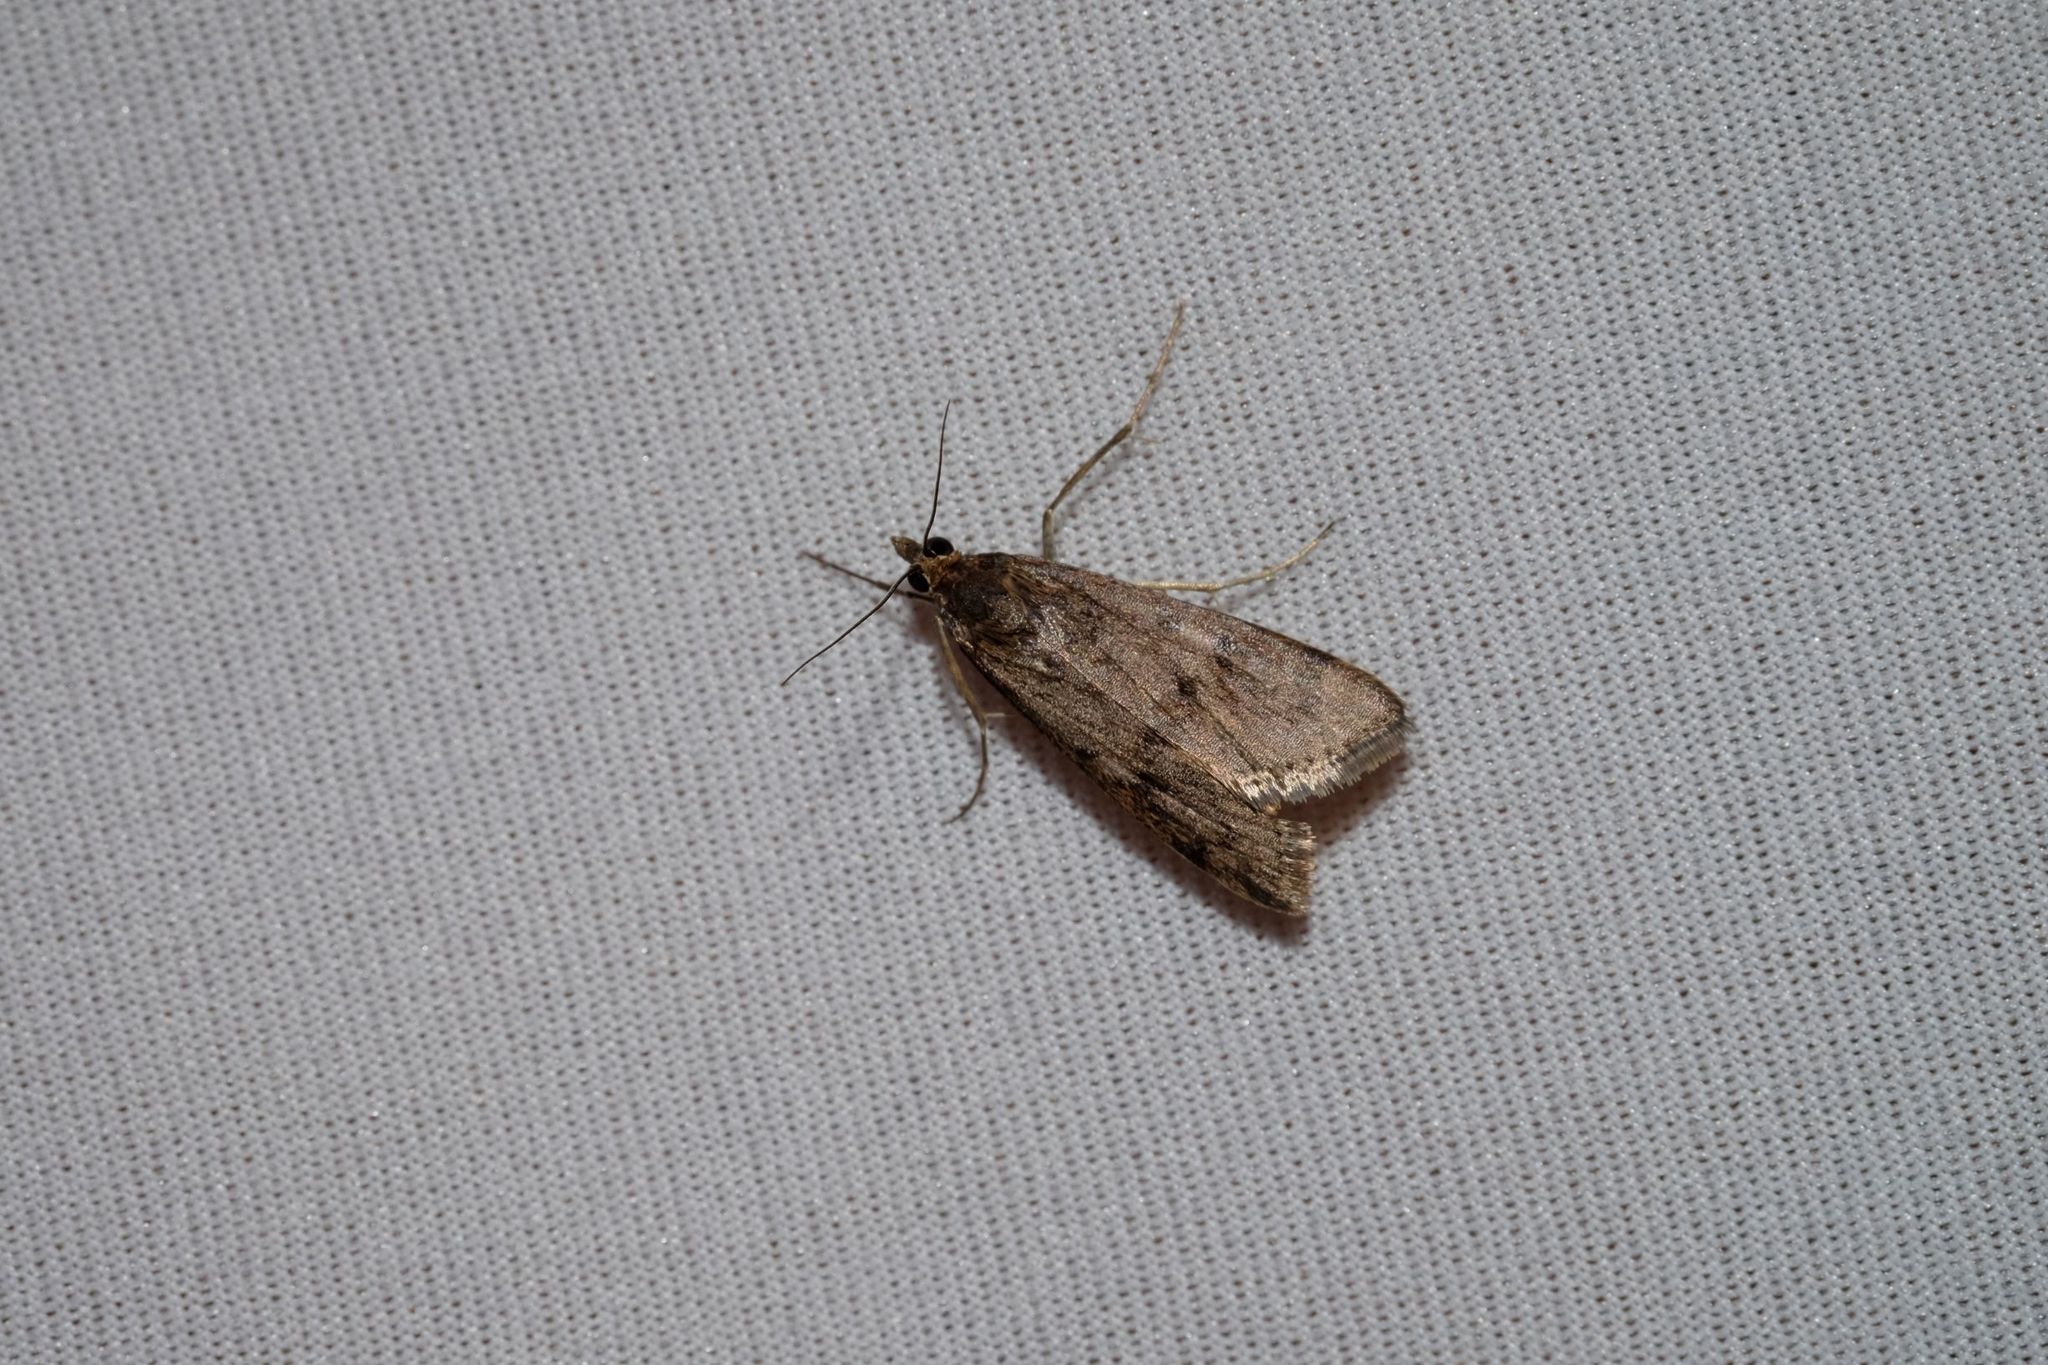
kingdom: Animalia
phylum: Arthropoda
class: Insecta
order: Lepidoptera
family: Crambidae
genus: Achyra
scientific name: Achyra affinitalis
